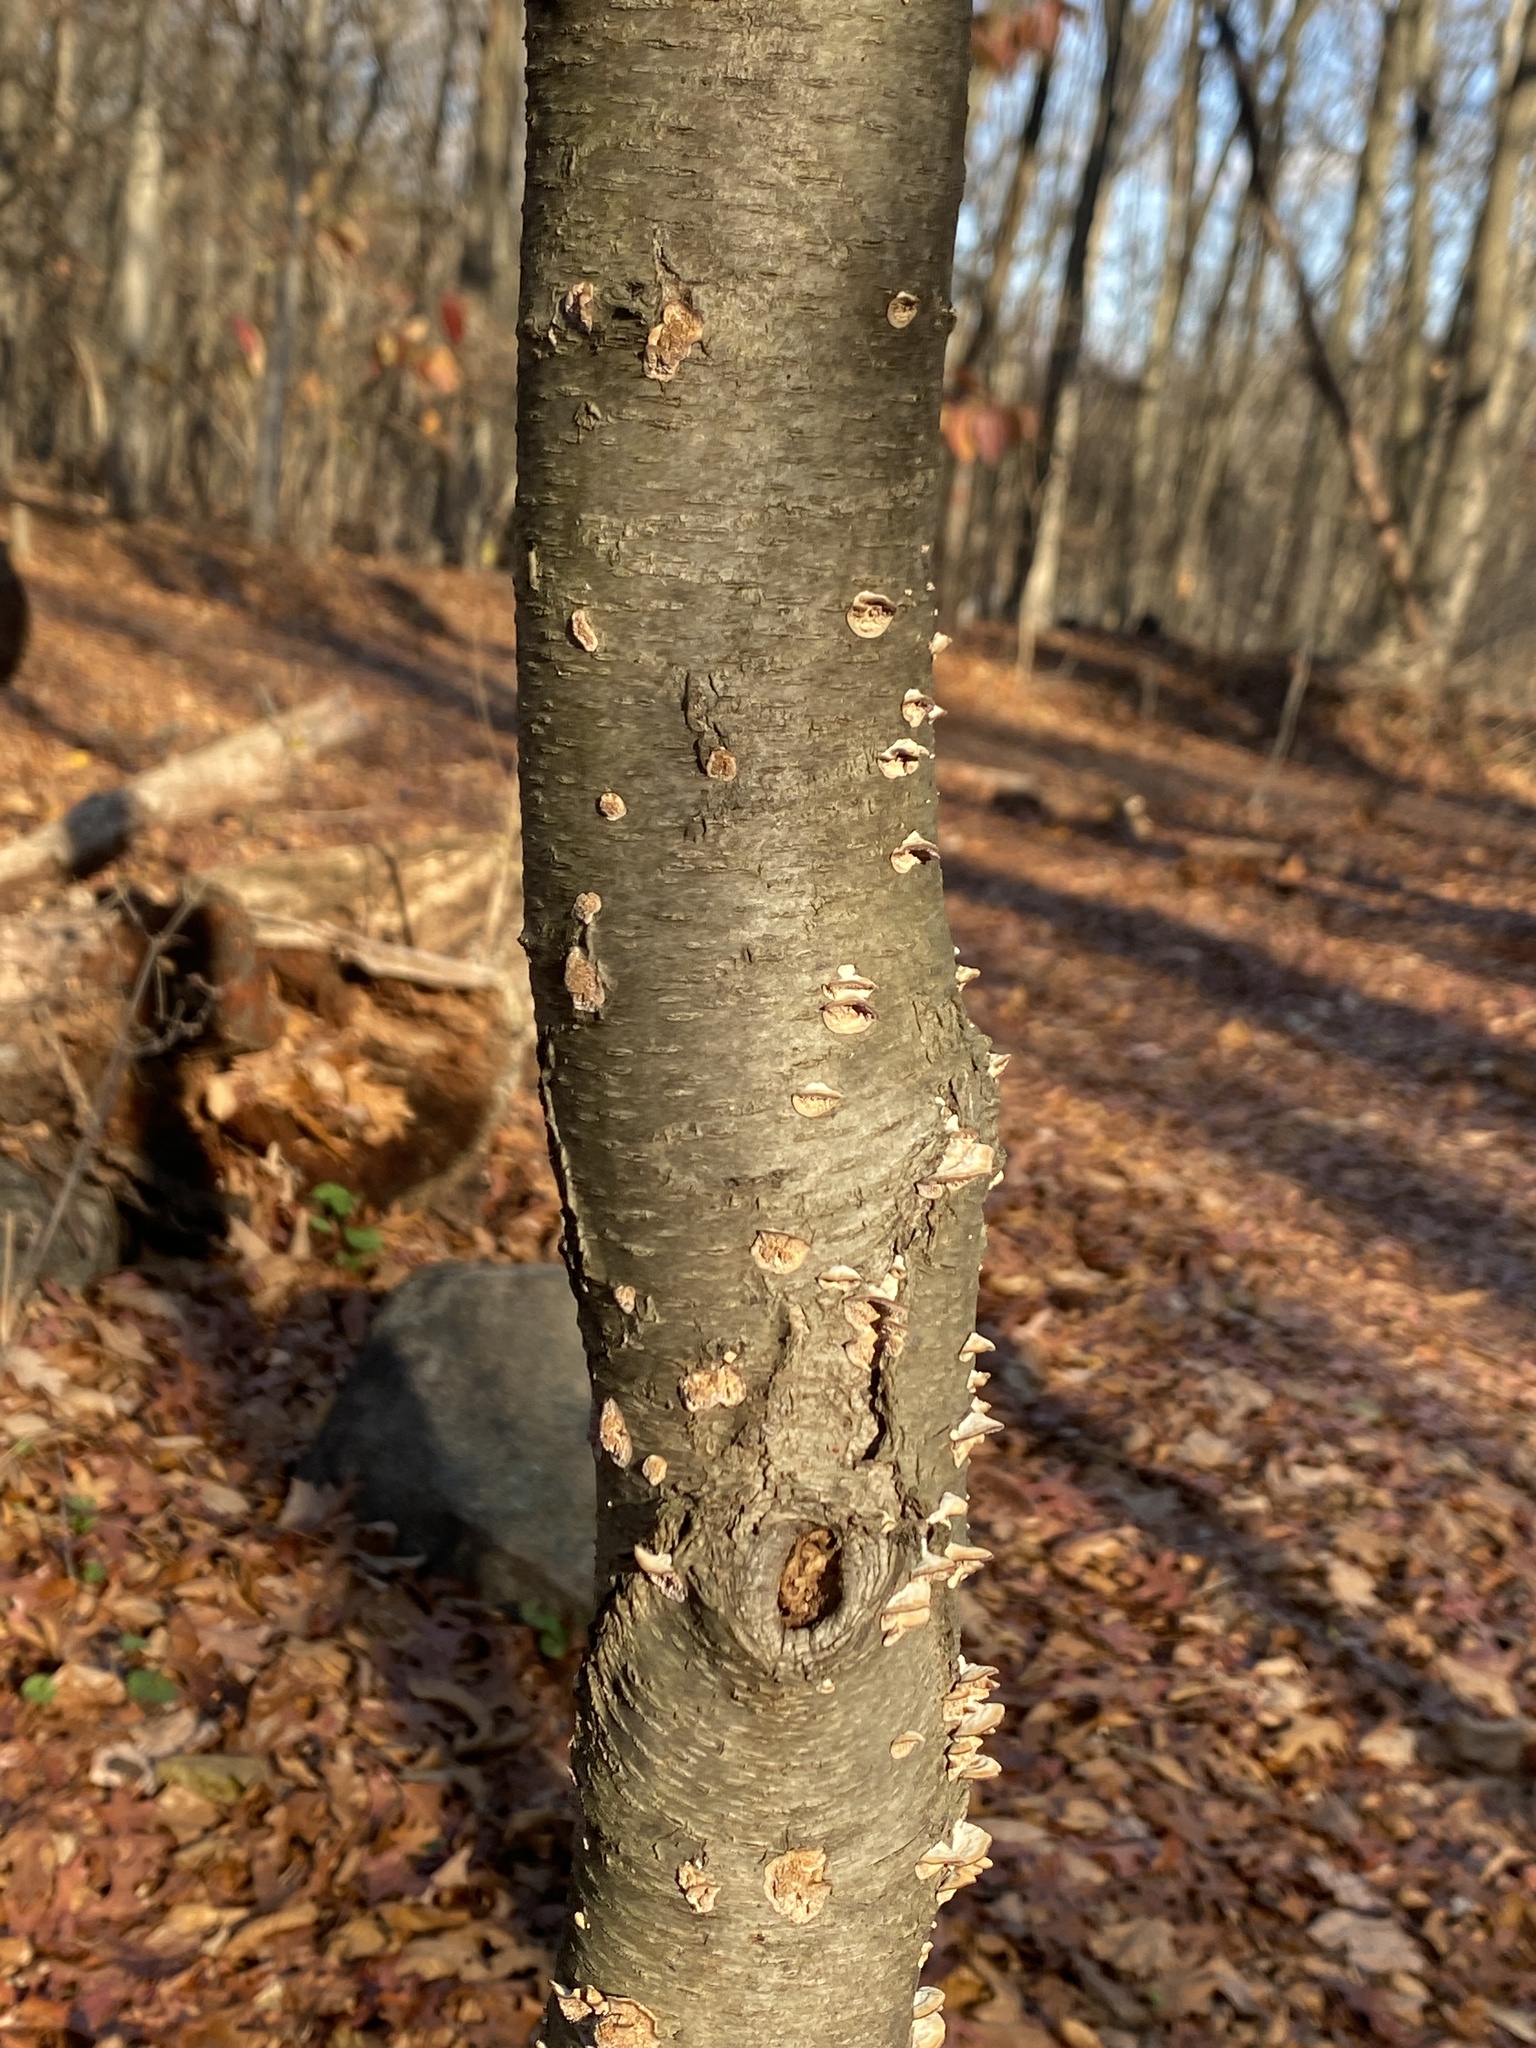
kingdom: Plantae
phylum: Tracheophyta
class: Magnoliopsida
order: Fagales
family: Betulaceae
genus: Betula
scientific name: Betula lenta
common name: Black birch
